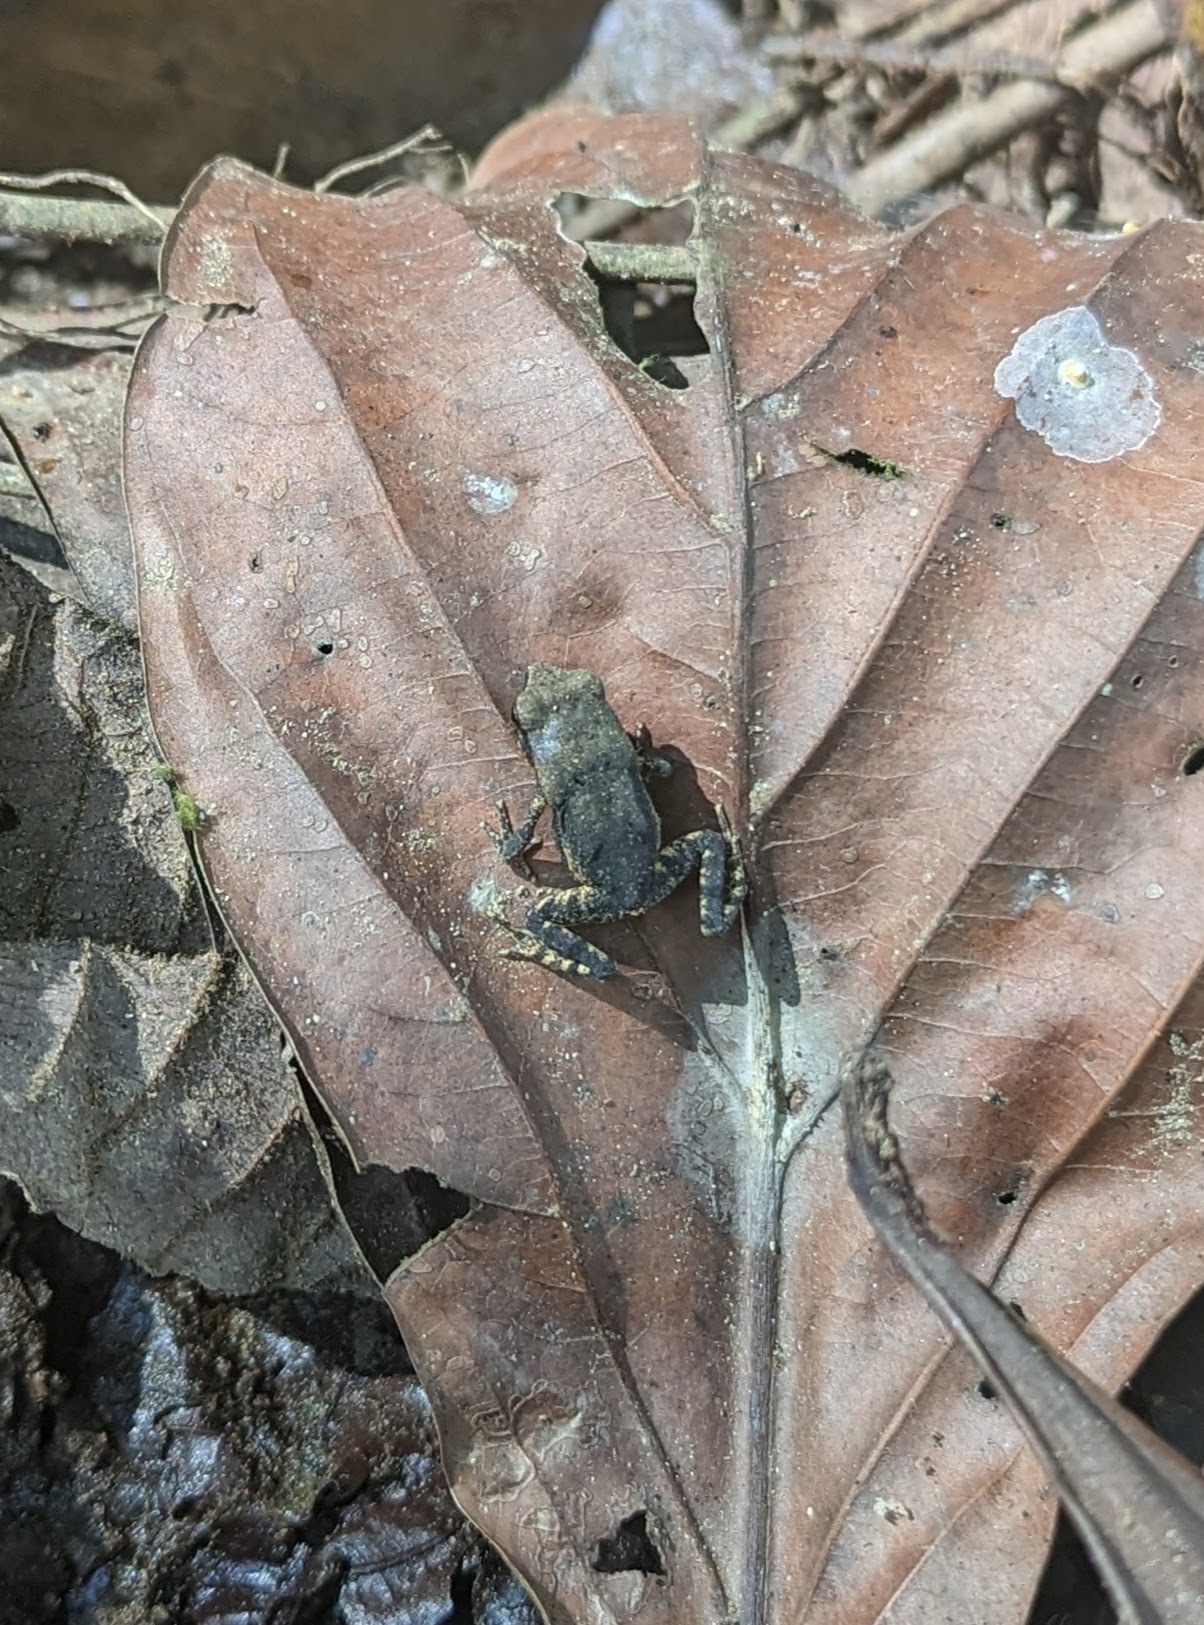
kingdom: Animalia
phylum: Chordata
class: Amphibia
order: Anura
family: Bufonidae
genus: Rhaebo
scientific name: Rhaebo haematiticus
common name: Truando toad
